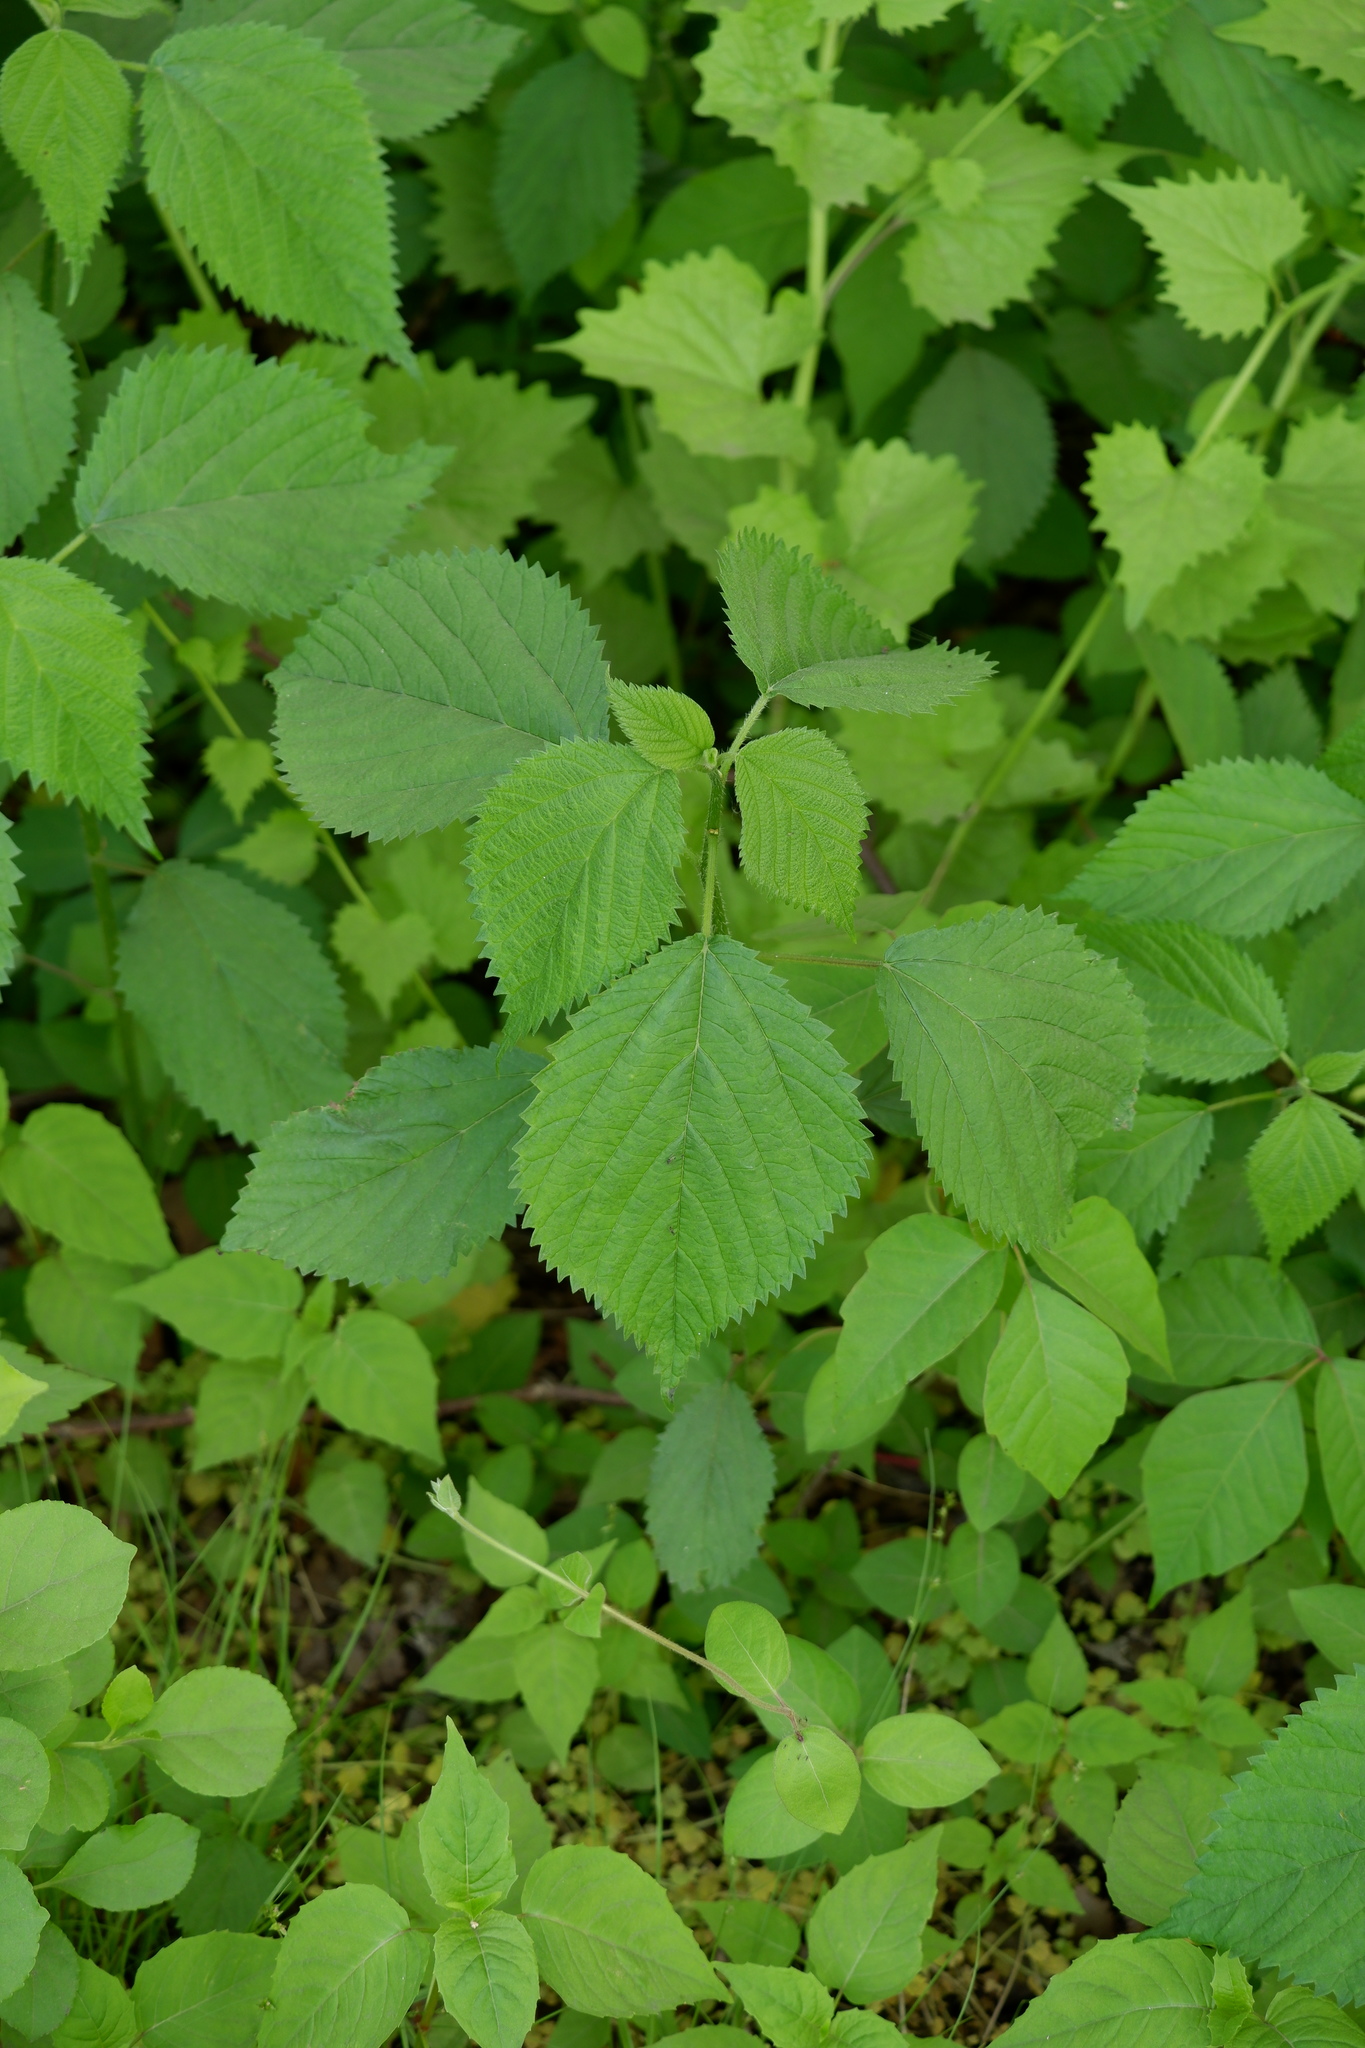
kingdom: Plantae
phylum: Tracheophyta
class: Magnoliopsida
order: Rosales
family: Urticaceae
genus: Laportea
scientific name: Laportea canadensis
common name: Canada nettle
